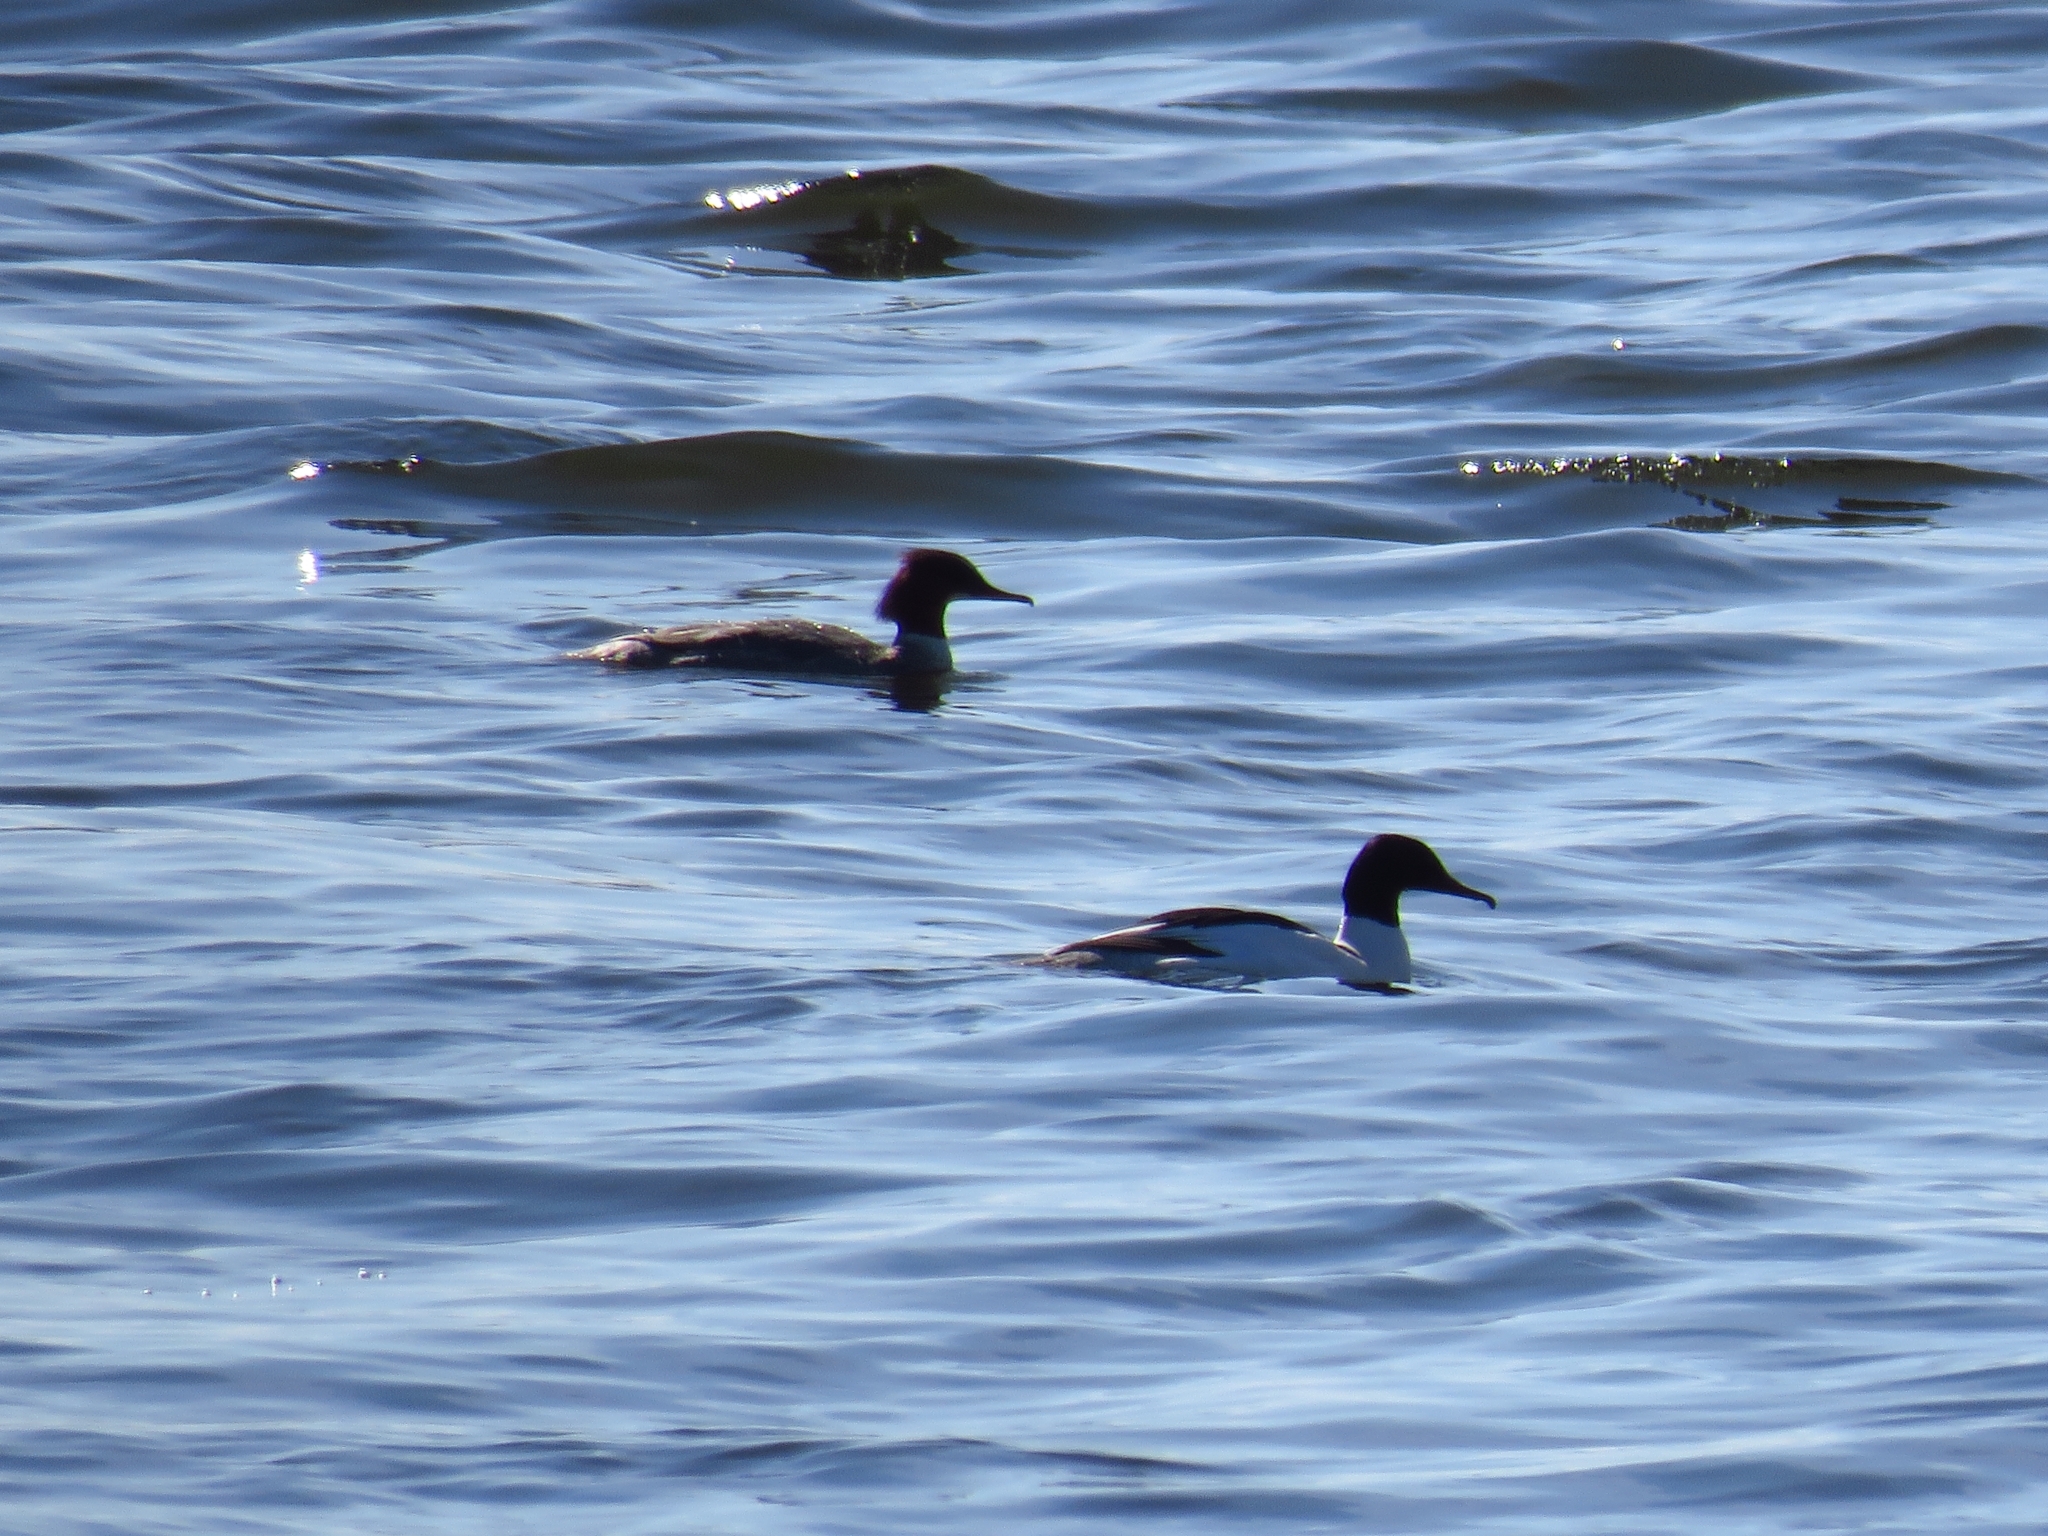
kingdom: Animalia
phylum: Chordata
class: Aves
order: Anseriformes
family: Anatidae
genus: Mergus
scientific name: Mergus merganser
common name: Common merganser
